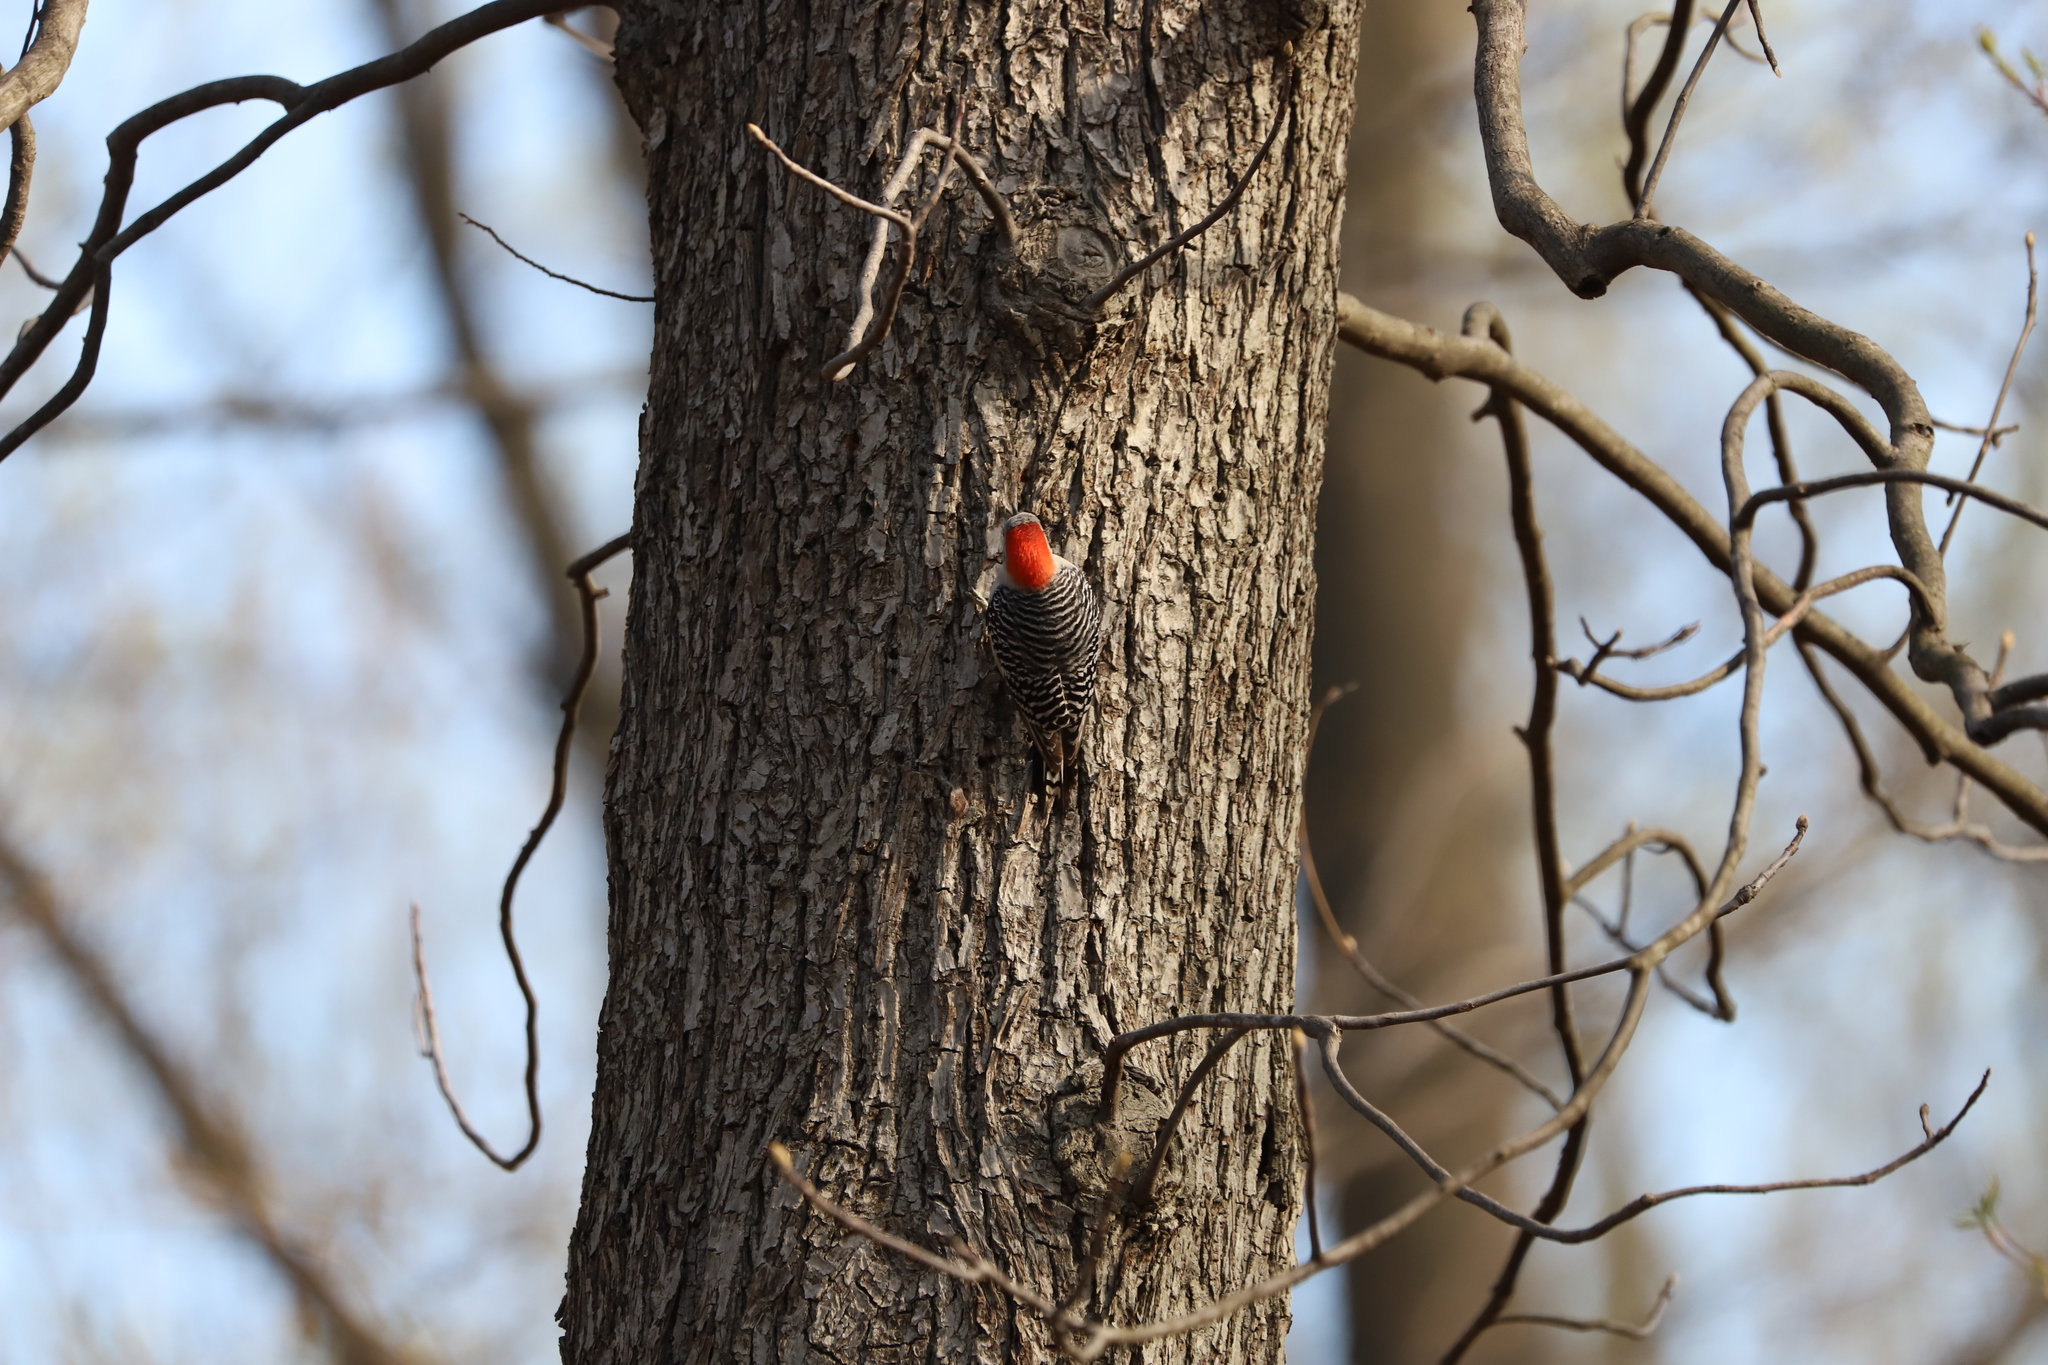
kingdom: Animalia
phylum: Chordata
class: Aves
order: Piciformes
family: Picidae
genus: Melanerpes
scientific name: Melanerpes carolinus
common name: Red-bellied woodpecker
